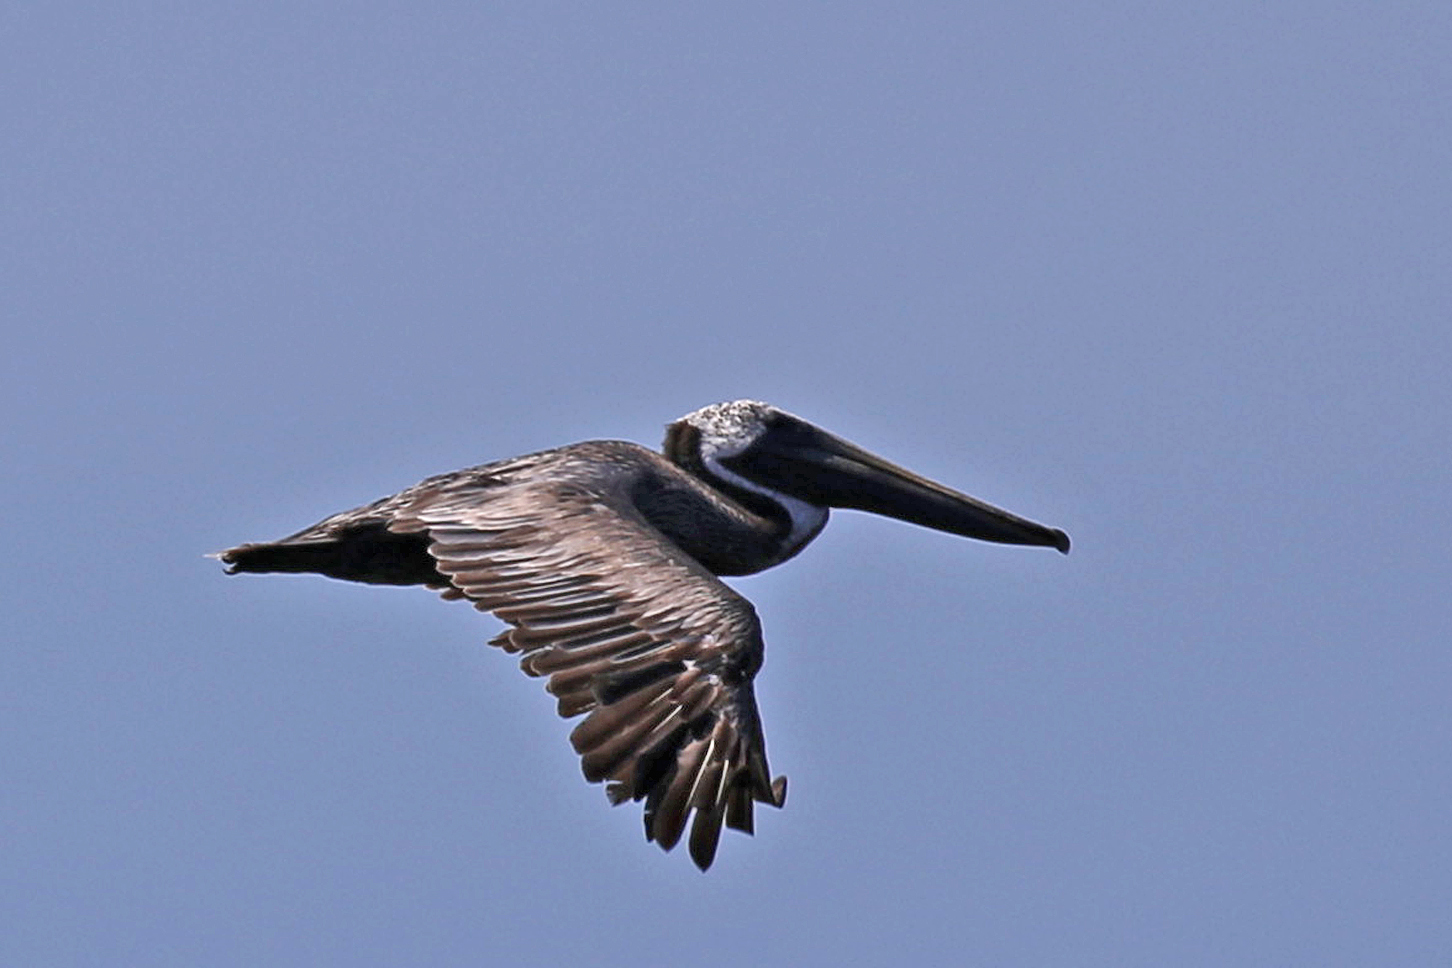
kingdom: Animalia
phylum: Chordata
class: Aves
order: Pelecaniformes
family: Pelecanidae
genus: Pelecanus
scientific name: Pelecanus occidentalis
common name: Brown pelican
